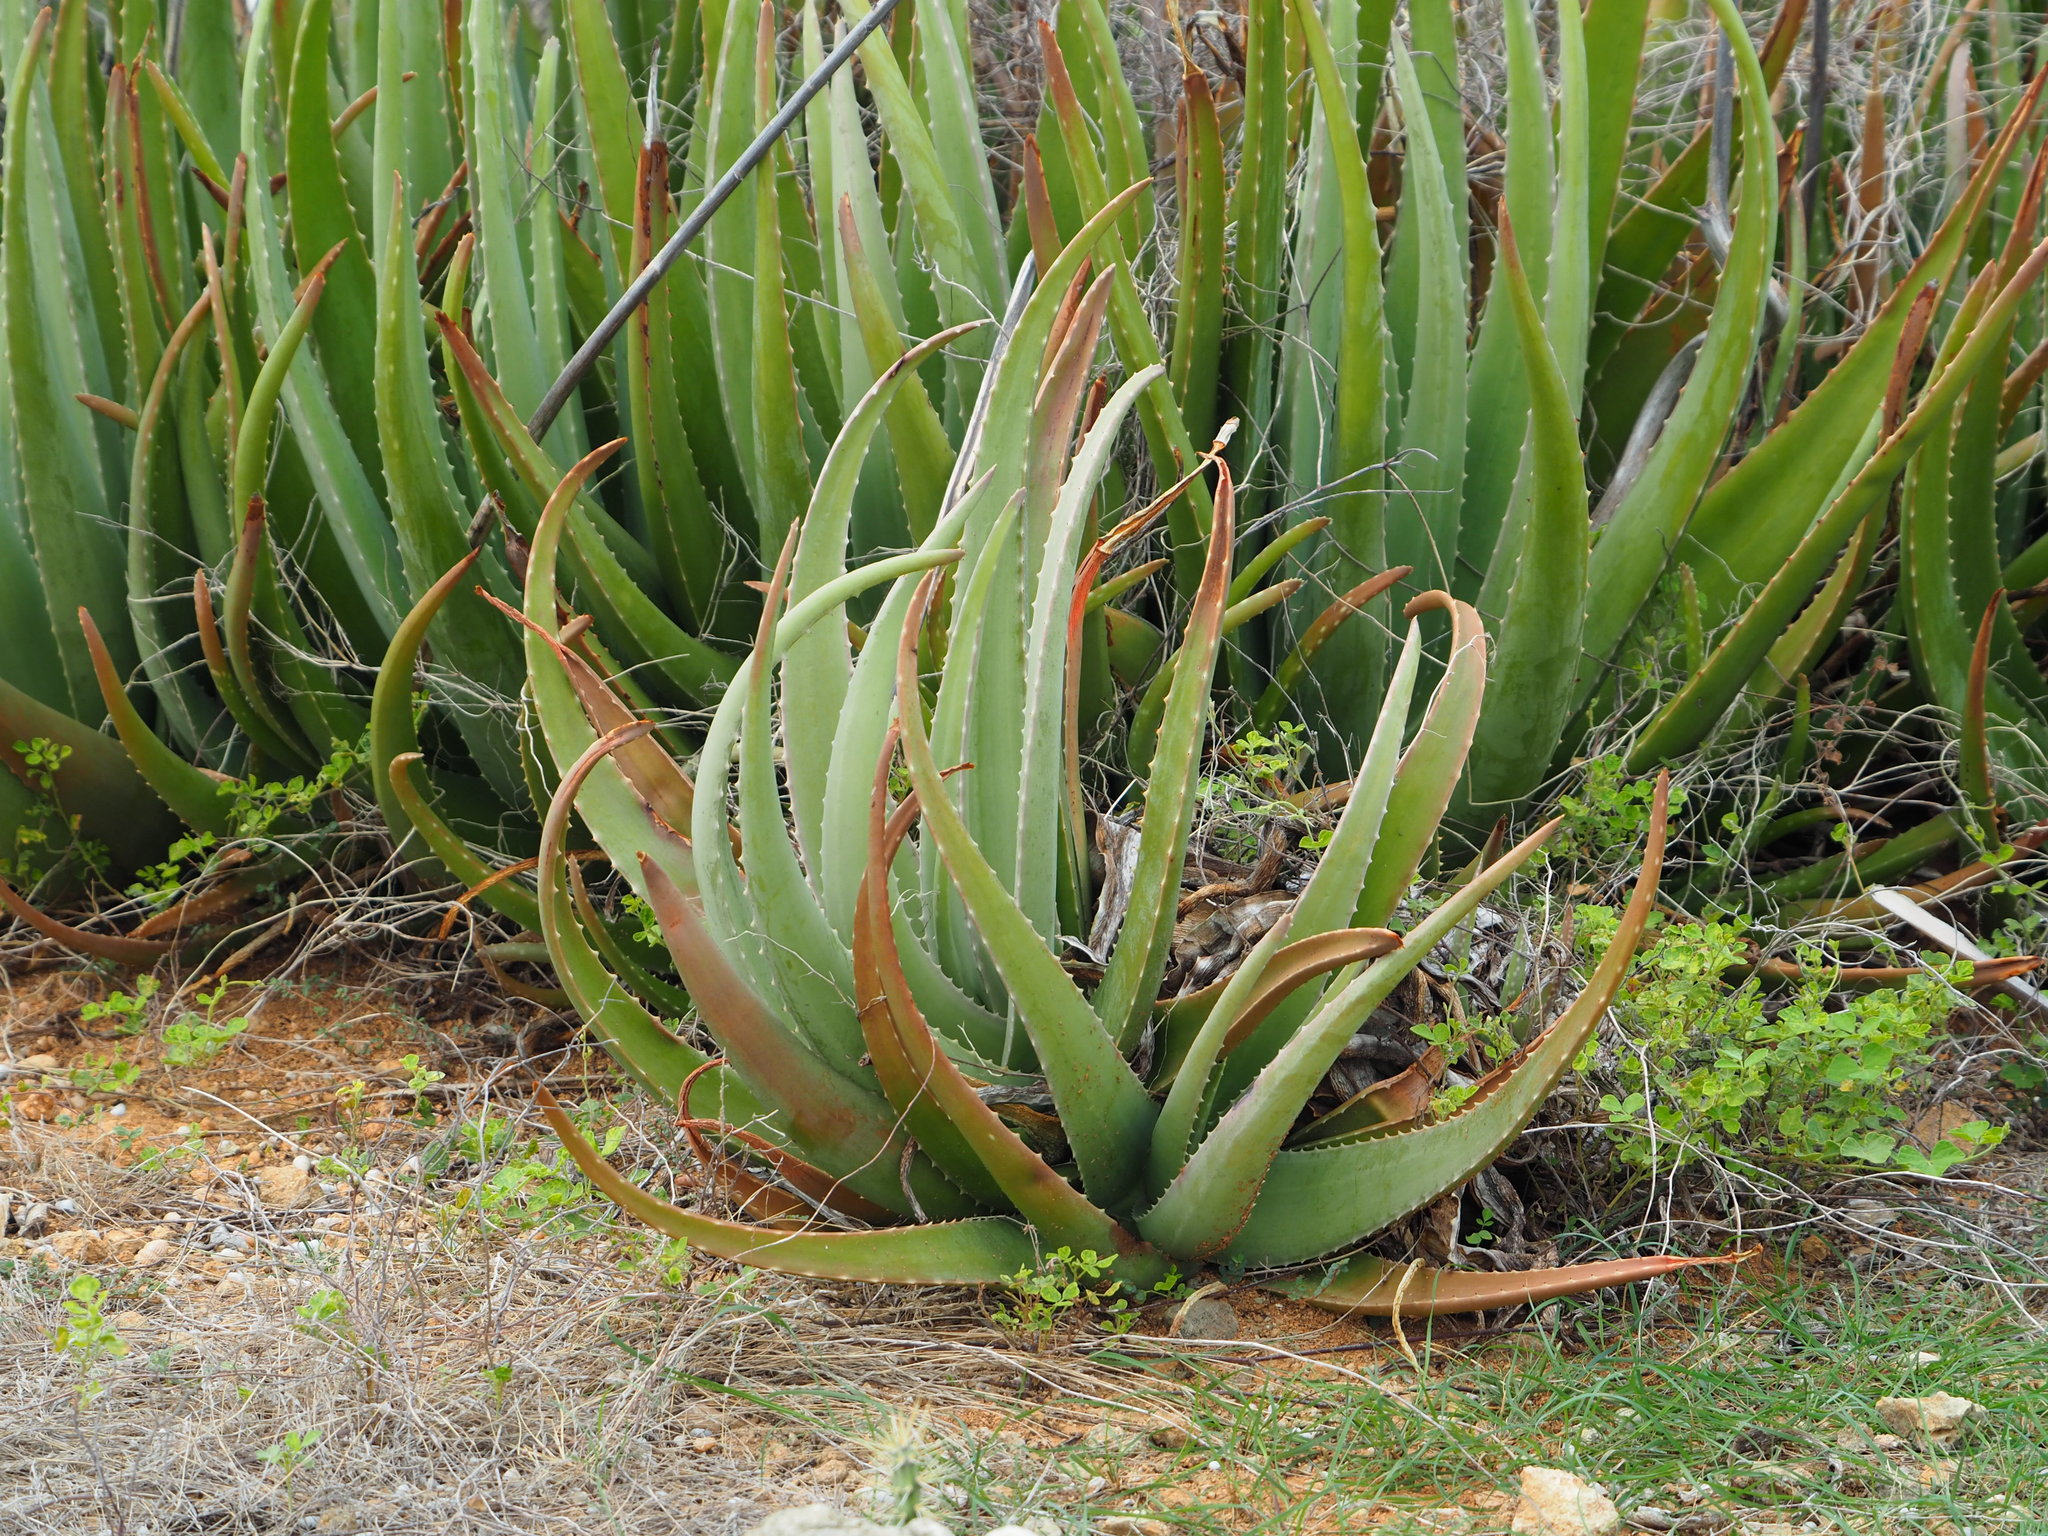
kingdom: Plantae
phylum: Tracheophyta
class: Liliopsida
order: Asparagales
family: Asphodelaceae
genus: Aloe
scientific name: Aloe vera
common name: Barbados aloe
